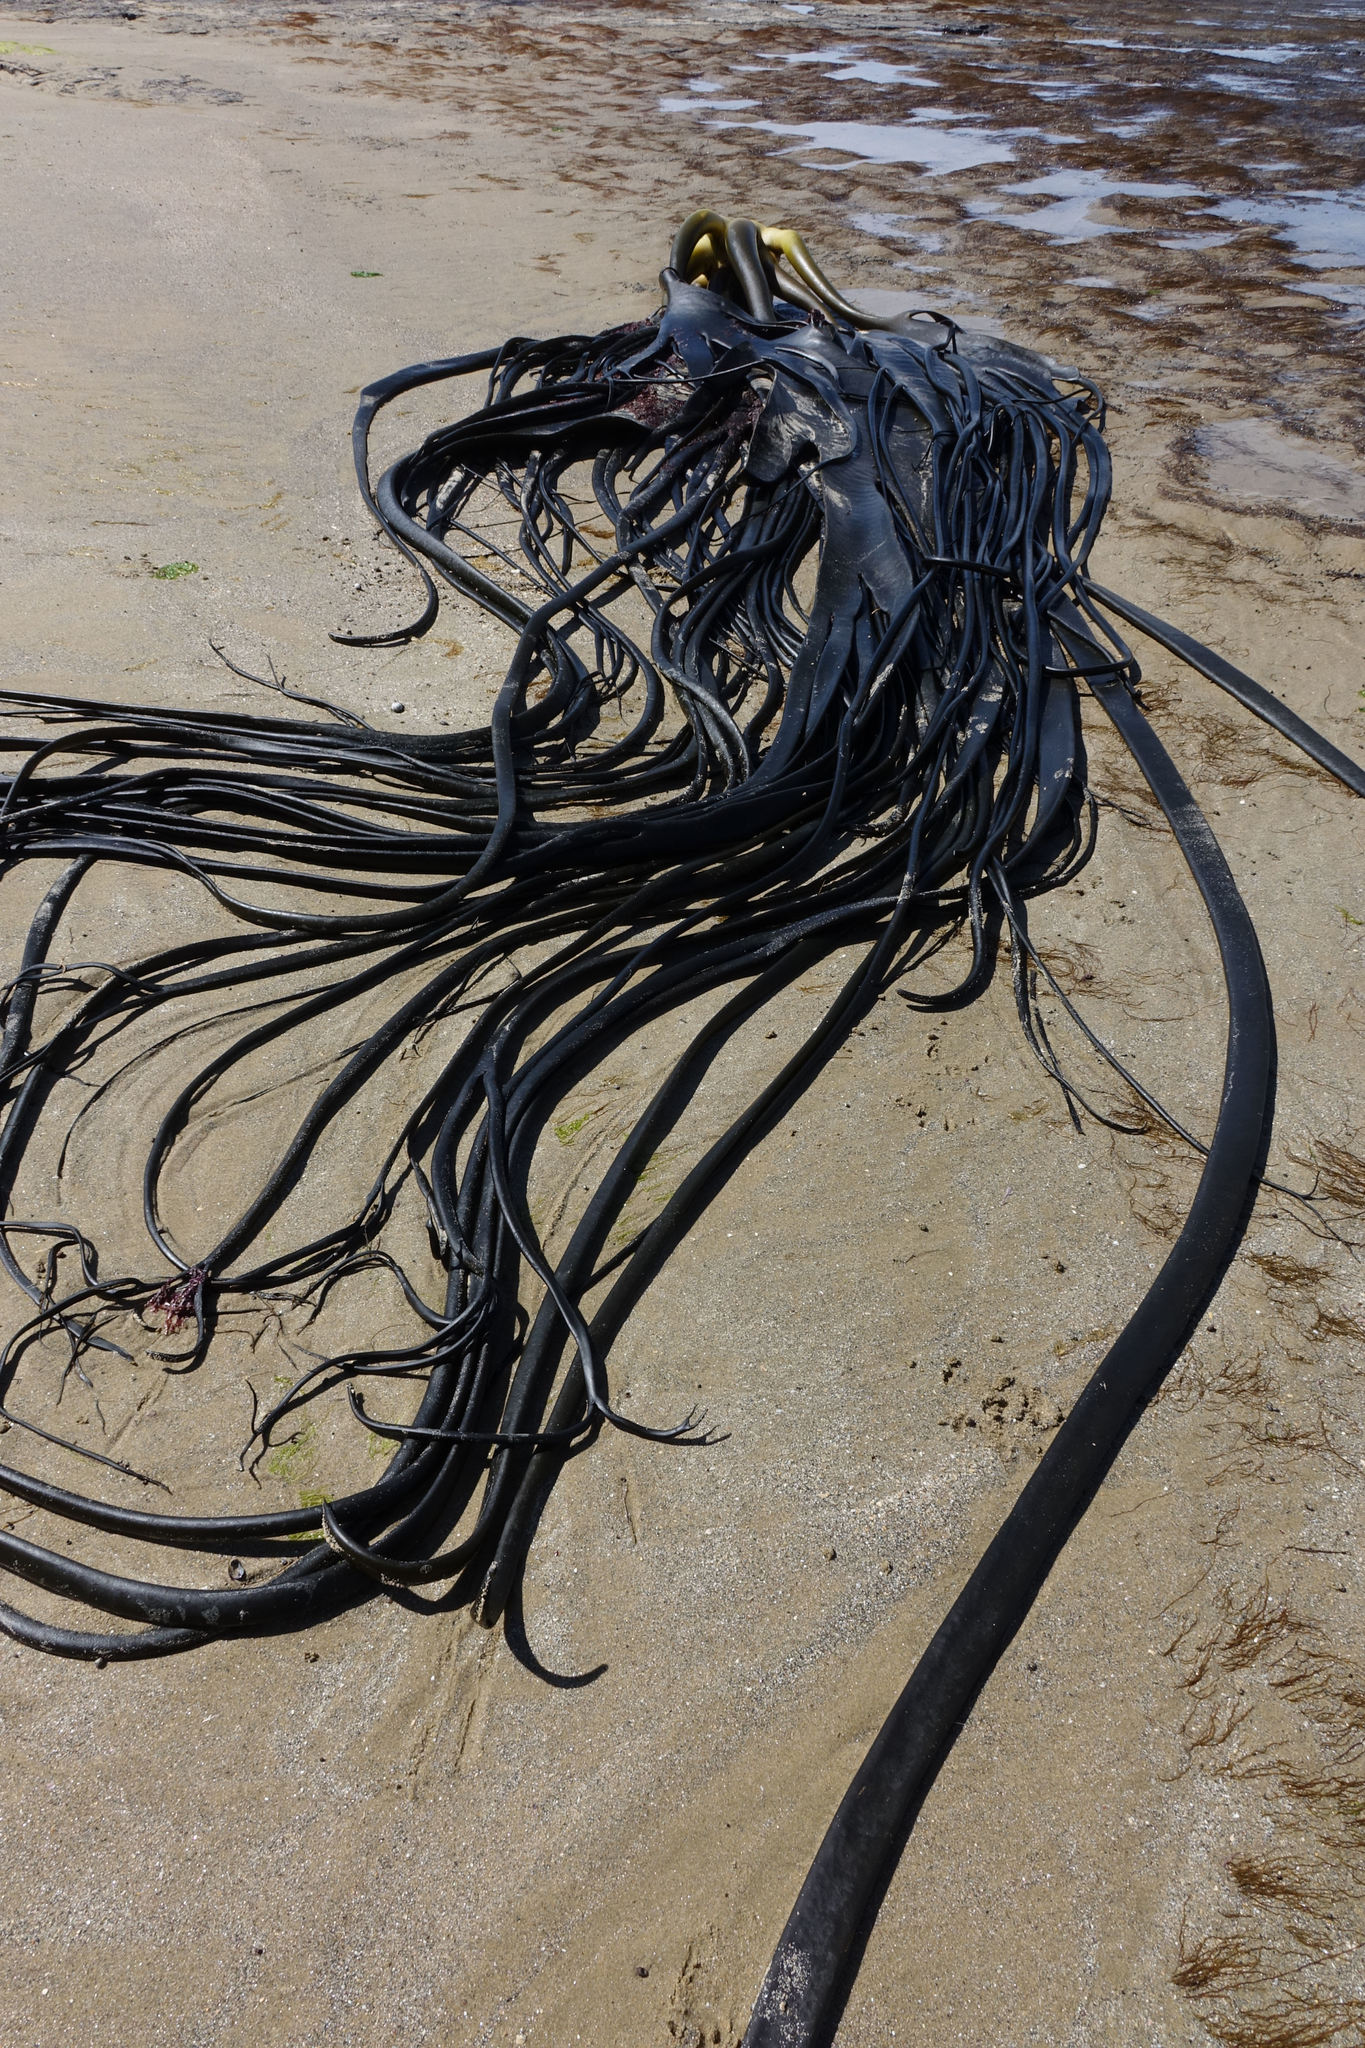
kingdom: Chromista
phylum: Ochrophyta
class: Phaeophyceae
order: Fucales
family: Durvillaeaceae
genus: Durvillaea
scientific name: Durvillaea antarctica
